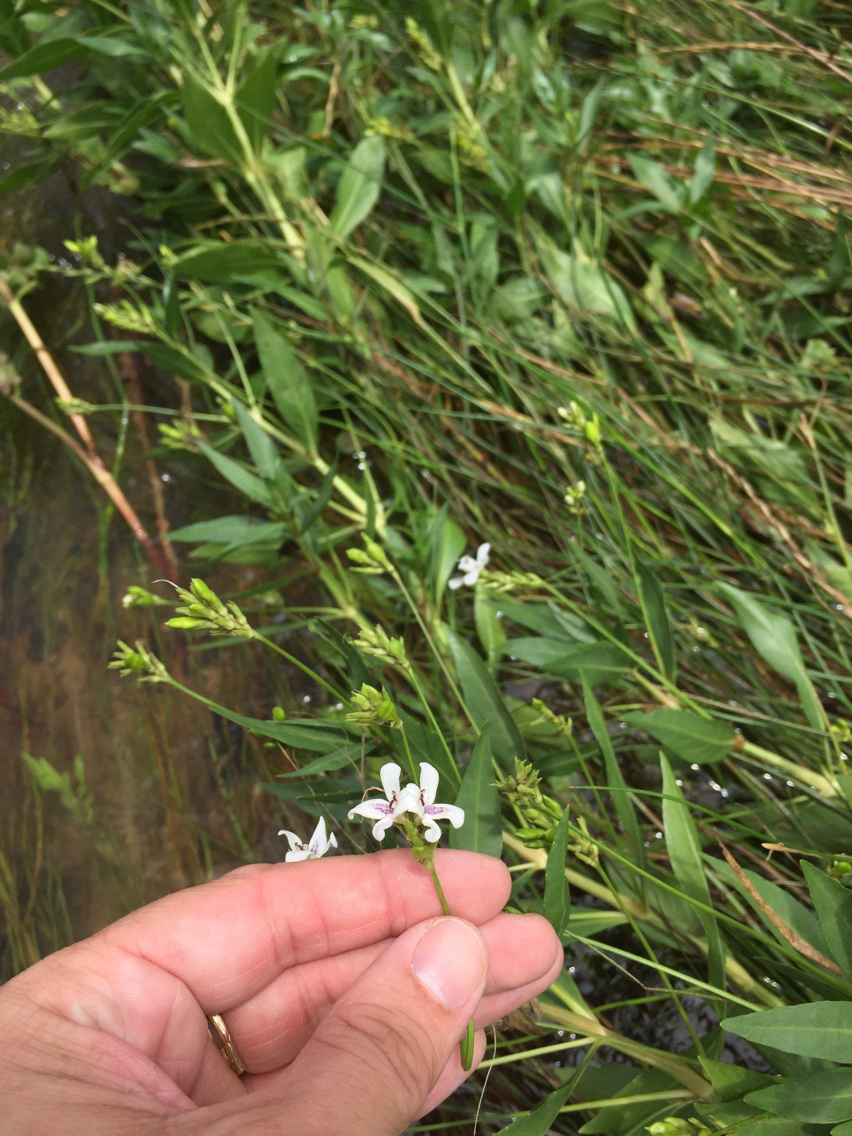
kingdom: Plantae
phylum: Tracheophyta
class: Magnoliopsida
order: Lamiales
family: Acanthaceae
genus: Dianthera
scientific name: Dianthera americana
